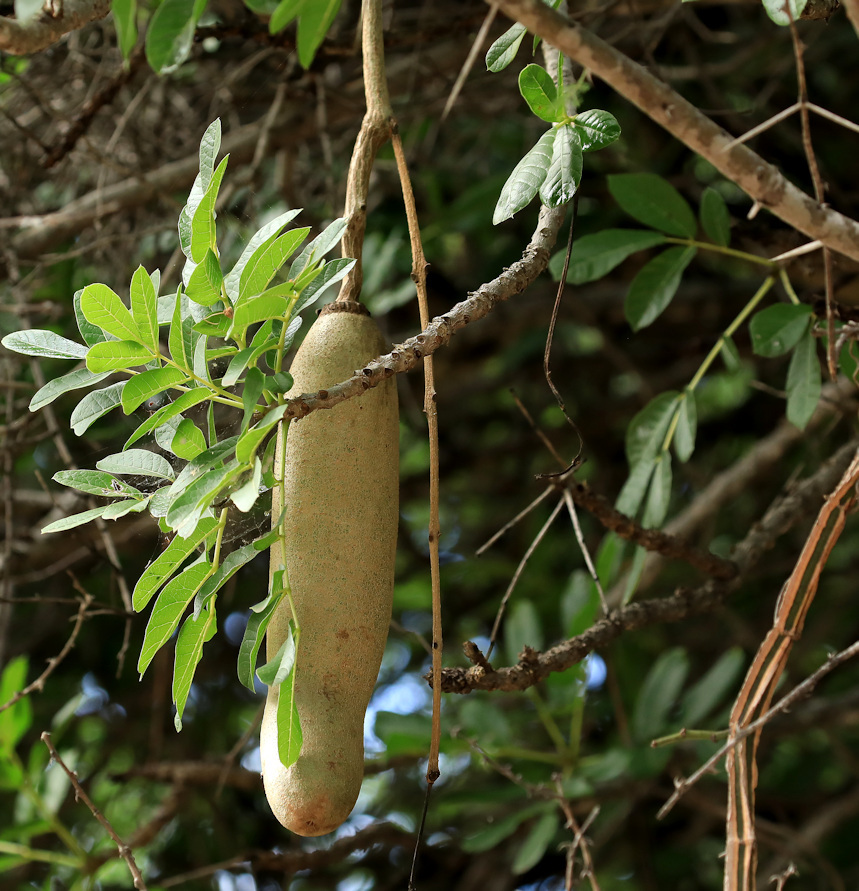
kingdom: Plantae
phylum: Tracheophyta
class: Magnoliopsida
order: Lamiales
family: Bignoniaceae
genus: Kigelia
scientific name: Kigelia africana
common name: Sausage tree
